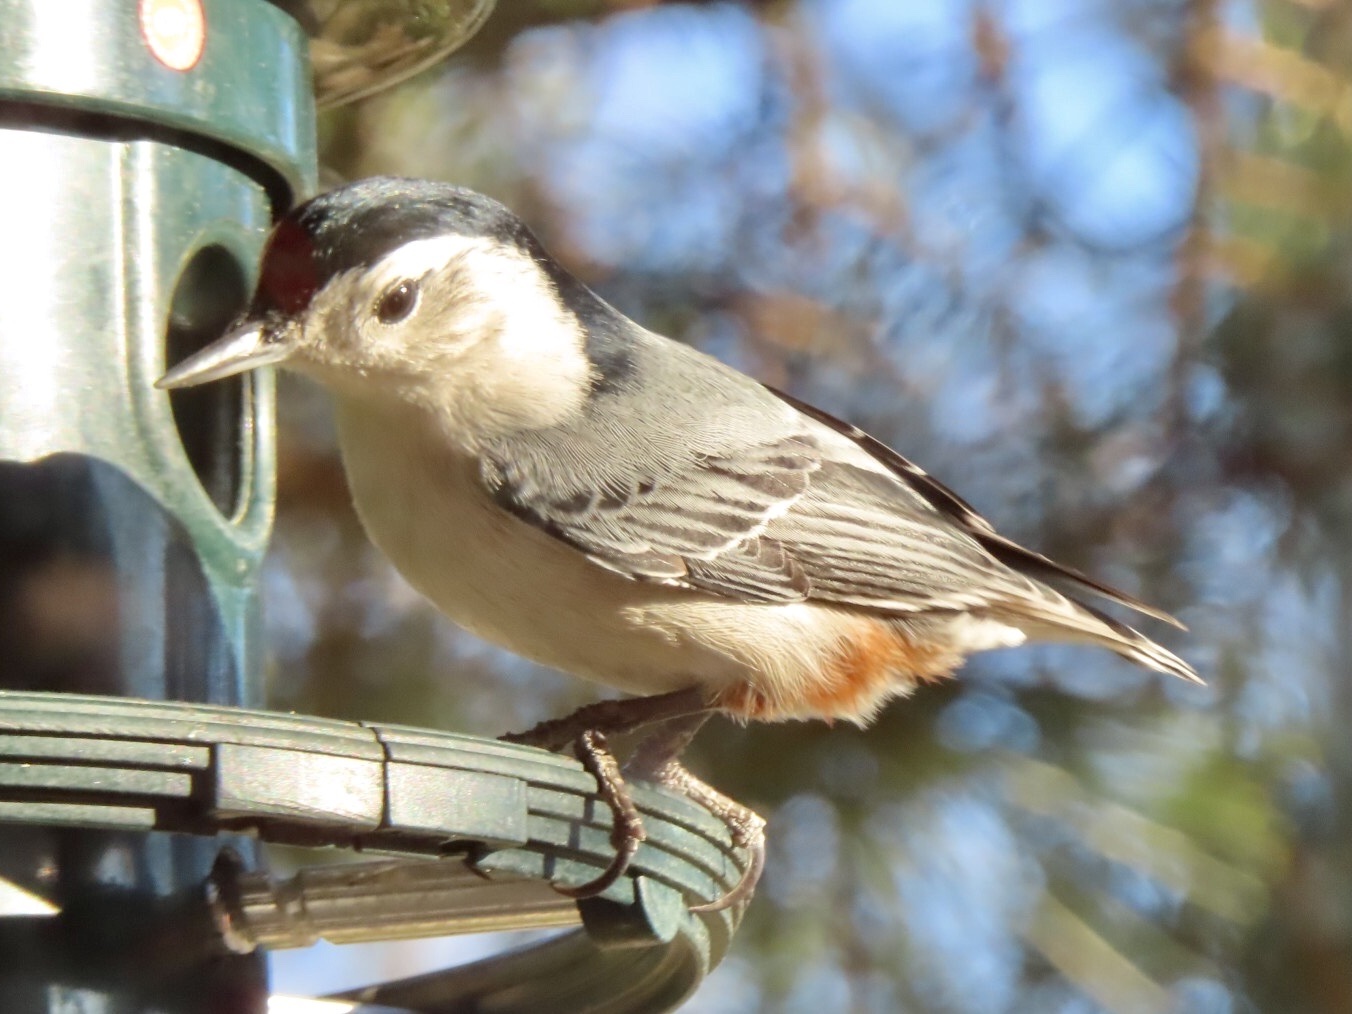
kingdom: Animalia
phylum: Chordata
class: Aves
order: Passeriformes
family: Sittidae
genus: Sitta
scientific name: Sitta carolinensis
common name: White-breasted nuthatch
